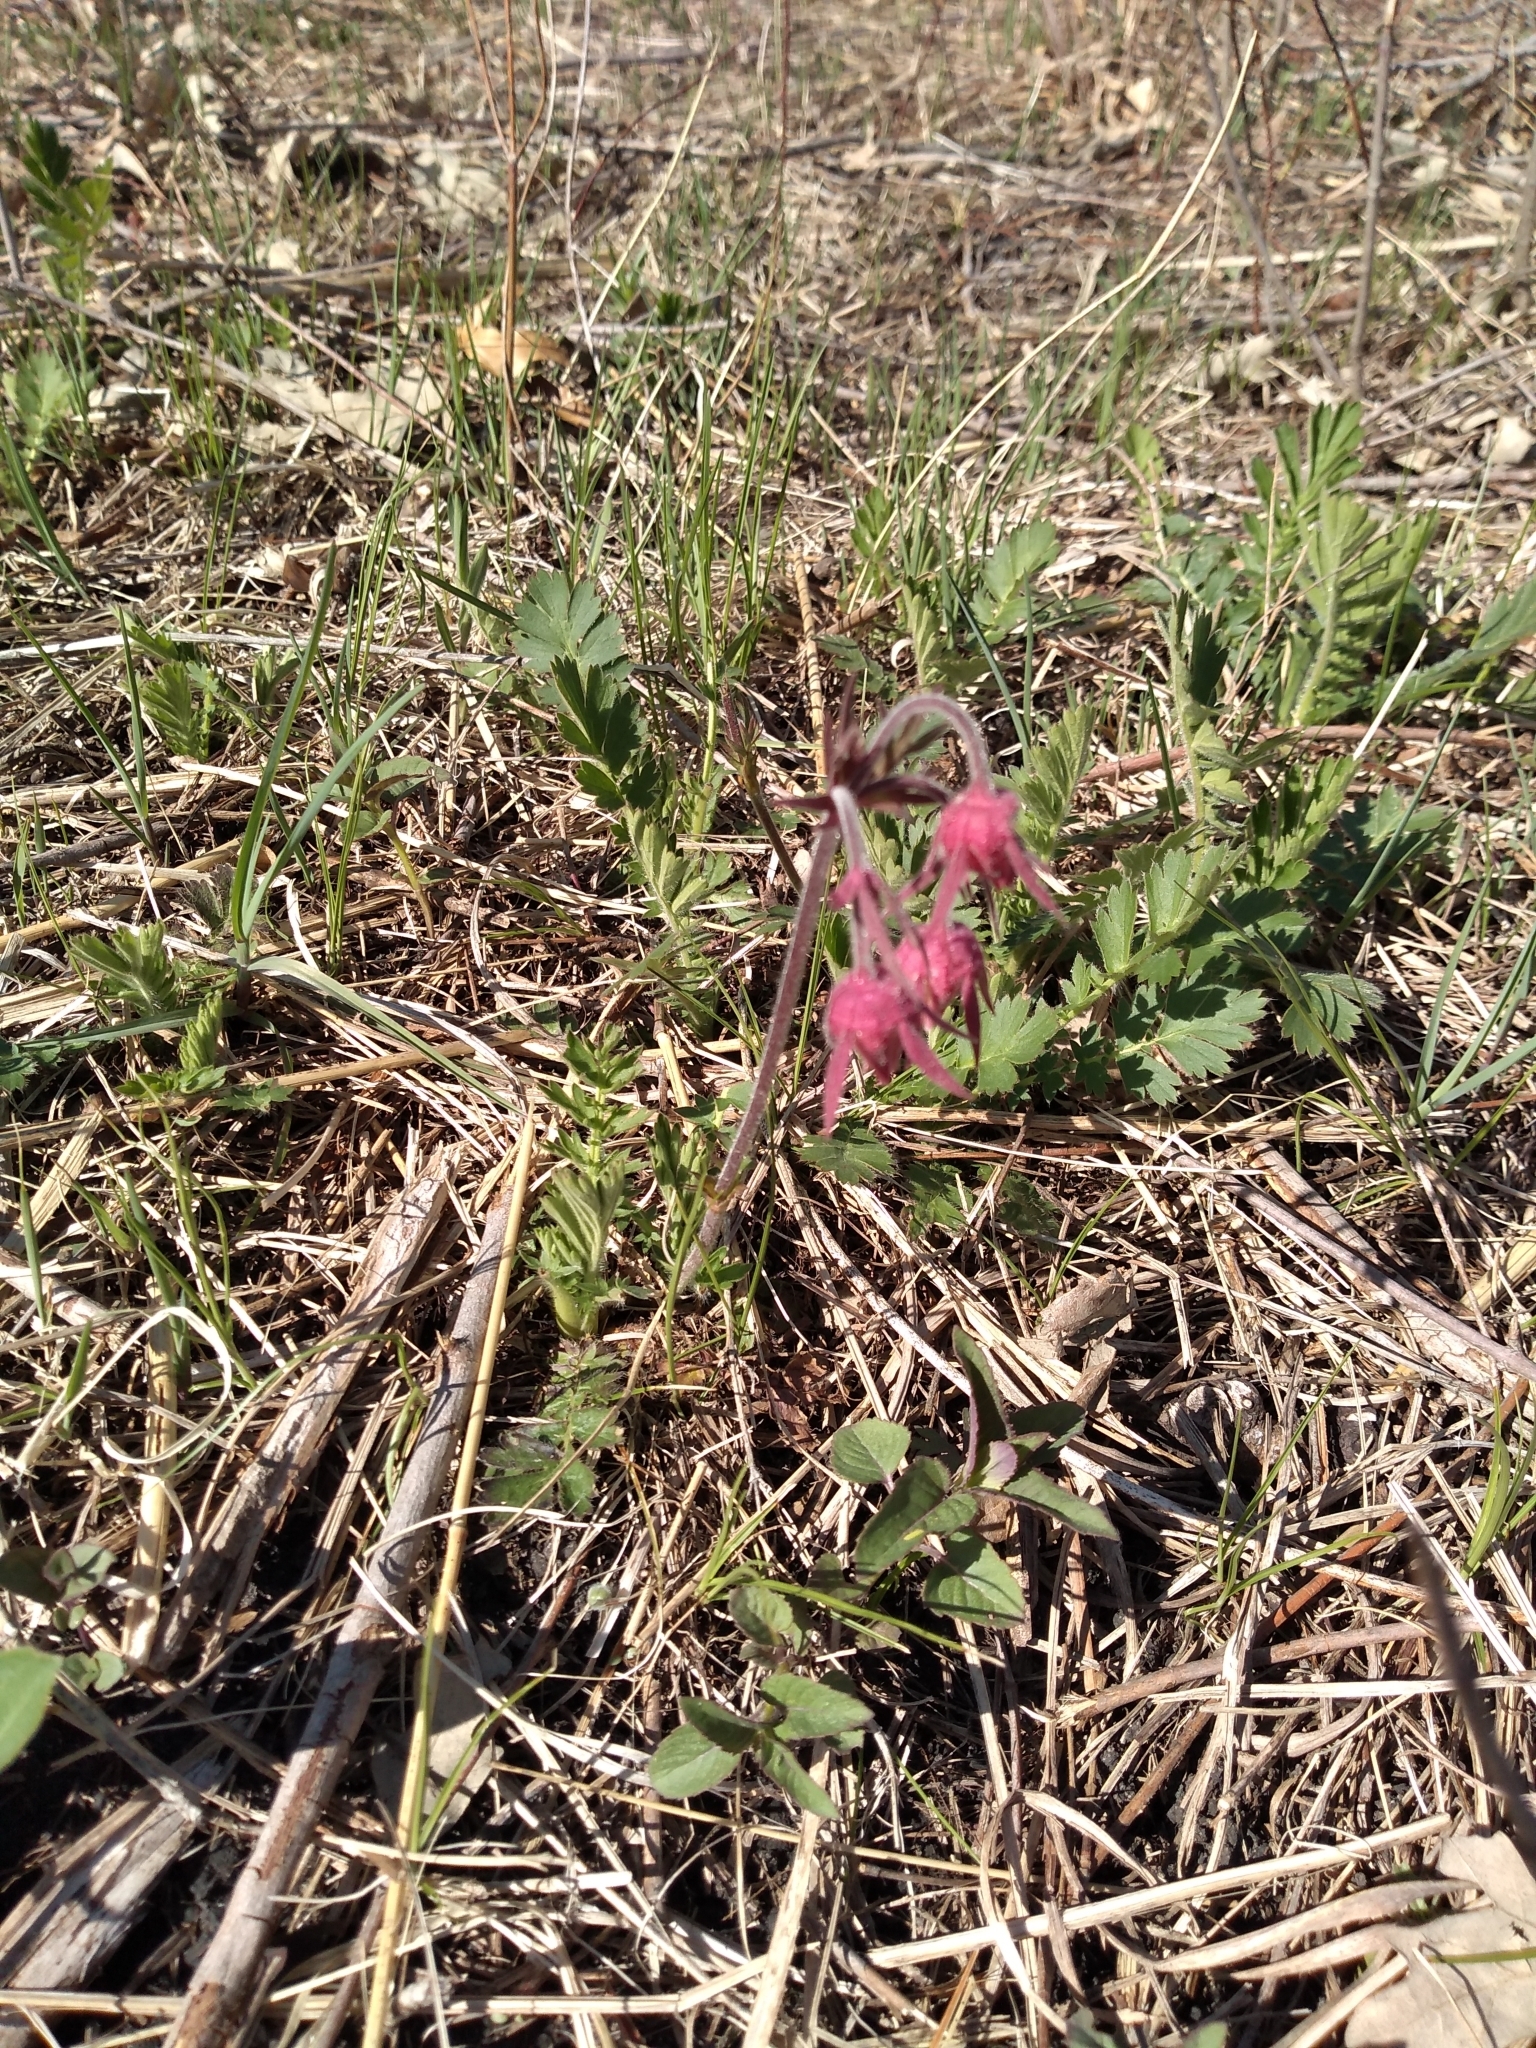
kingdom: Plantae
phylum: Tracheophyta
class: Magnoliopsida
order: Rosales
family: Rosaceae
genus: Geum
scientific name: Geum triflorum
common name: Old man's whiskers
